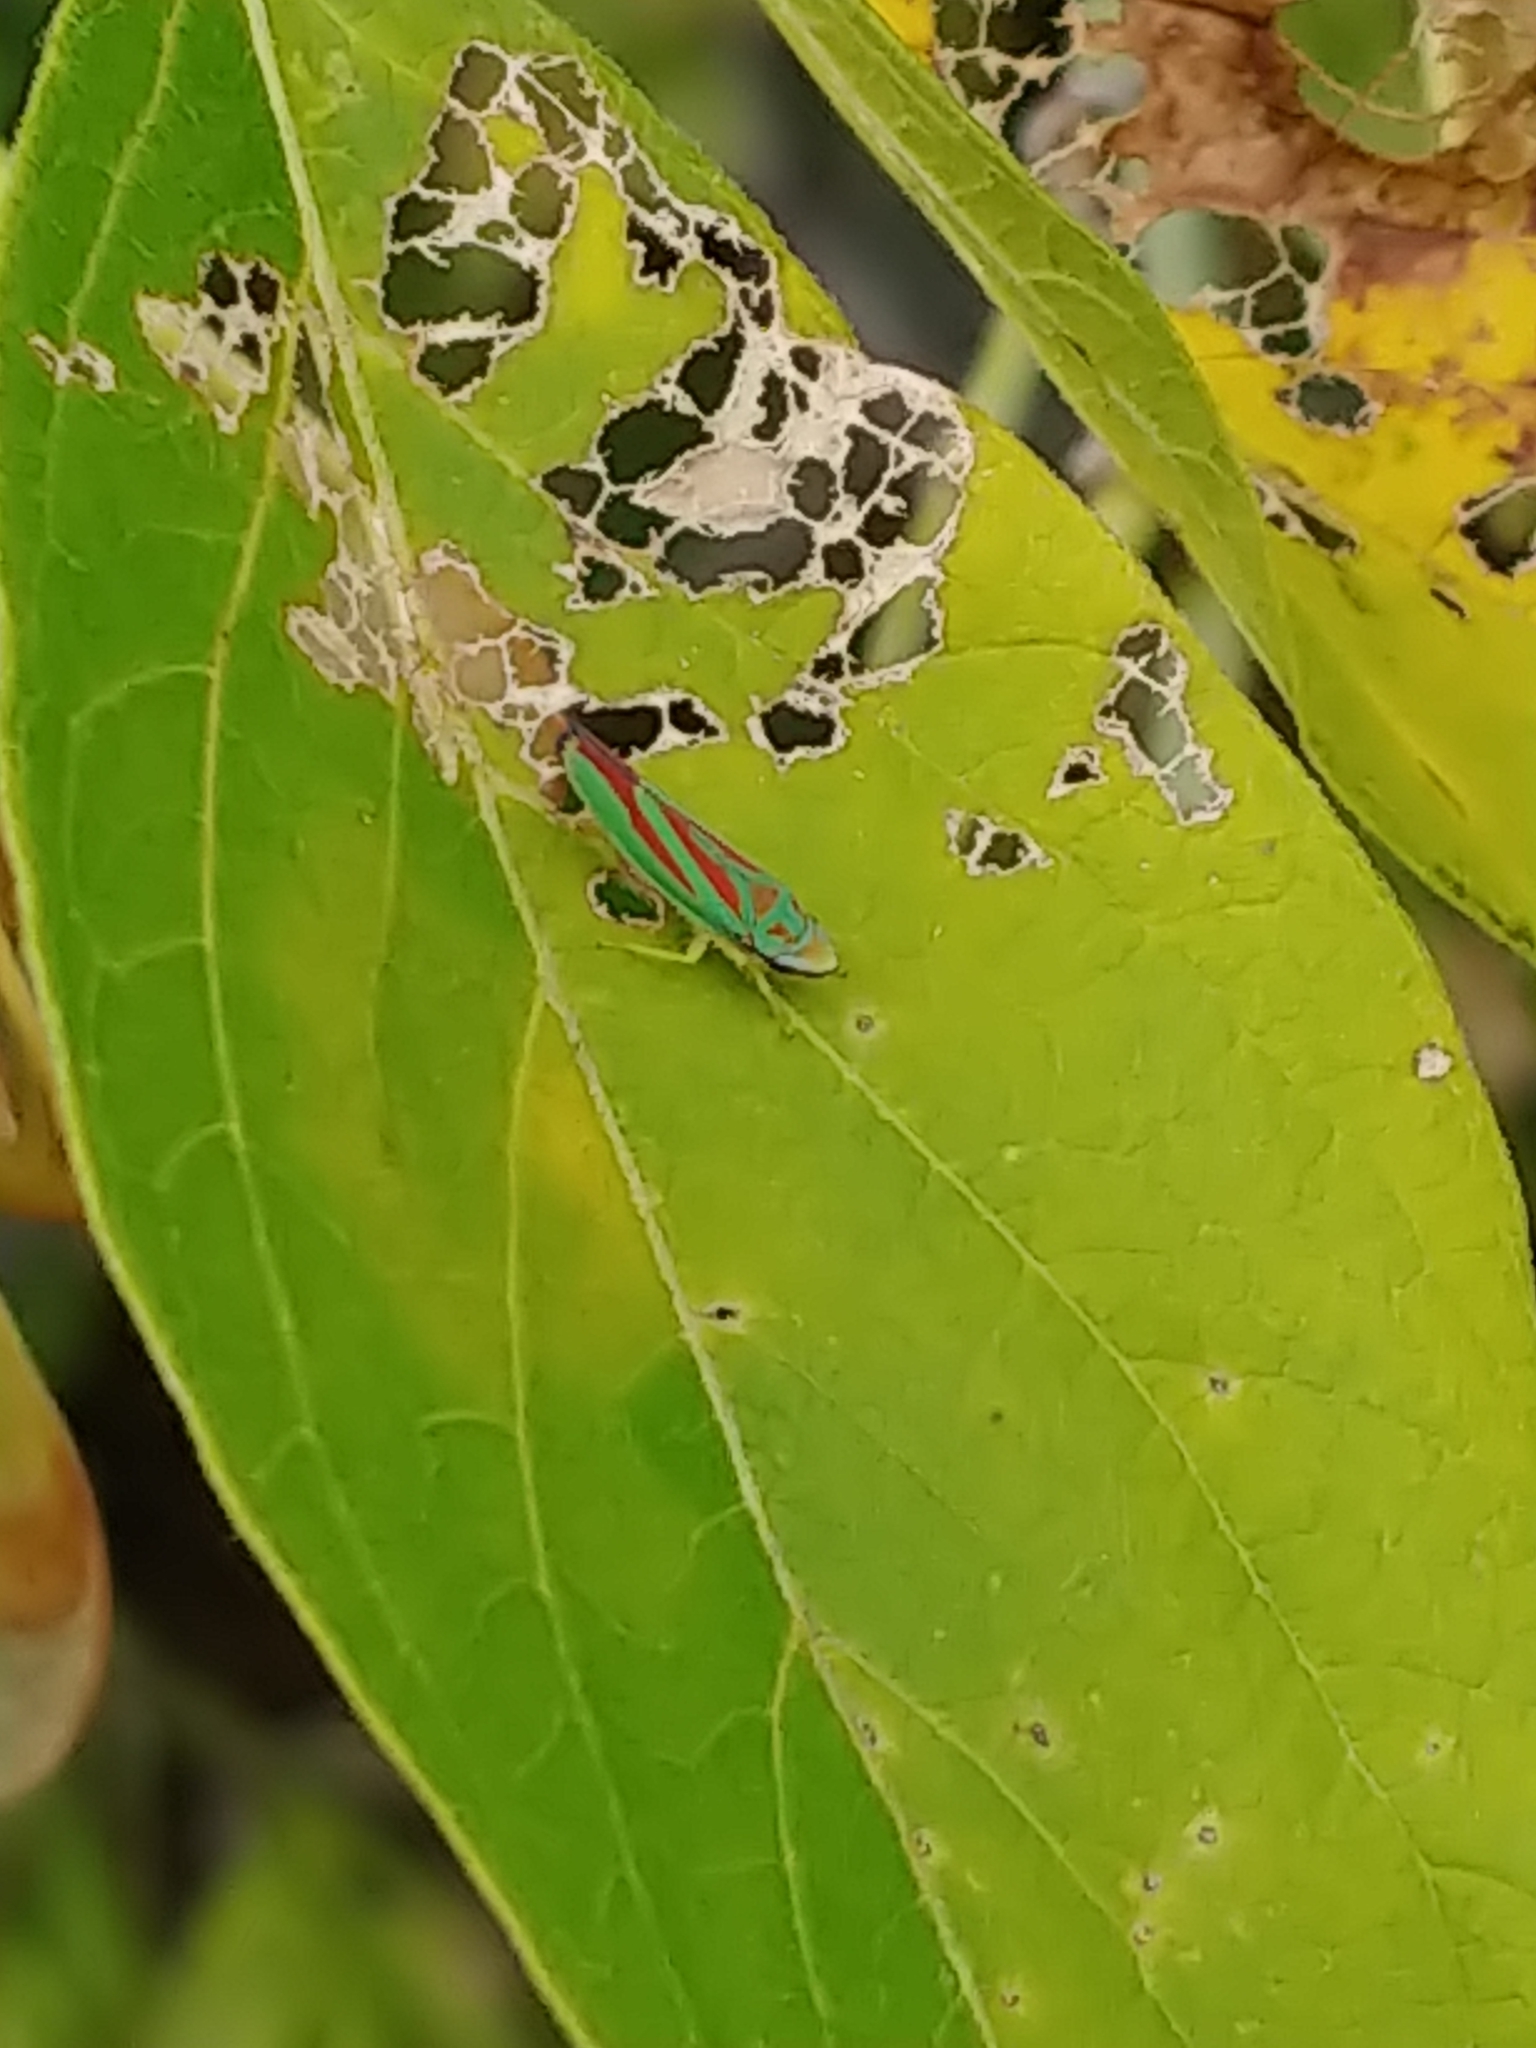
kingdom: Animalia
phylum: Arthropoda
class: Insecta
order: Hemiptera
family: Cicadellidae
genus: Graphocephala
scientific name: Graphocephala fennahi
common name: Rhododendron leafhopper
